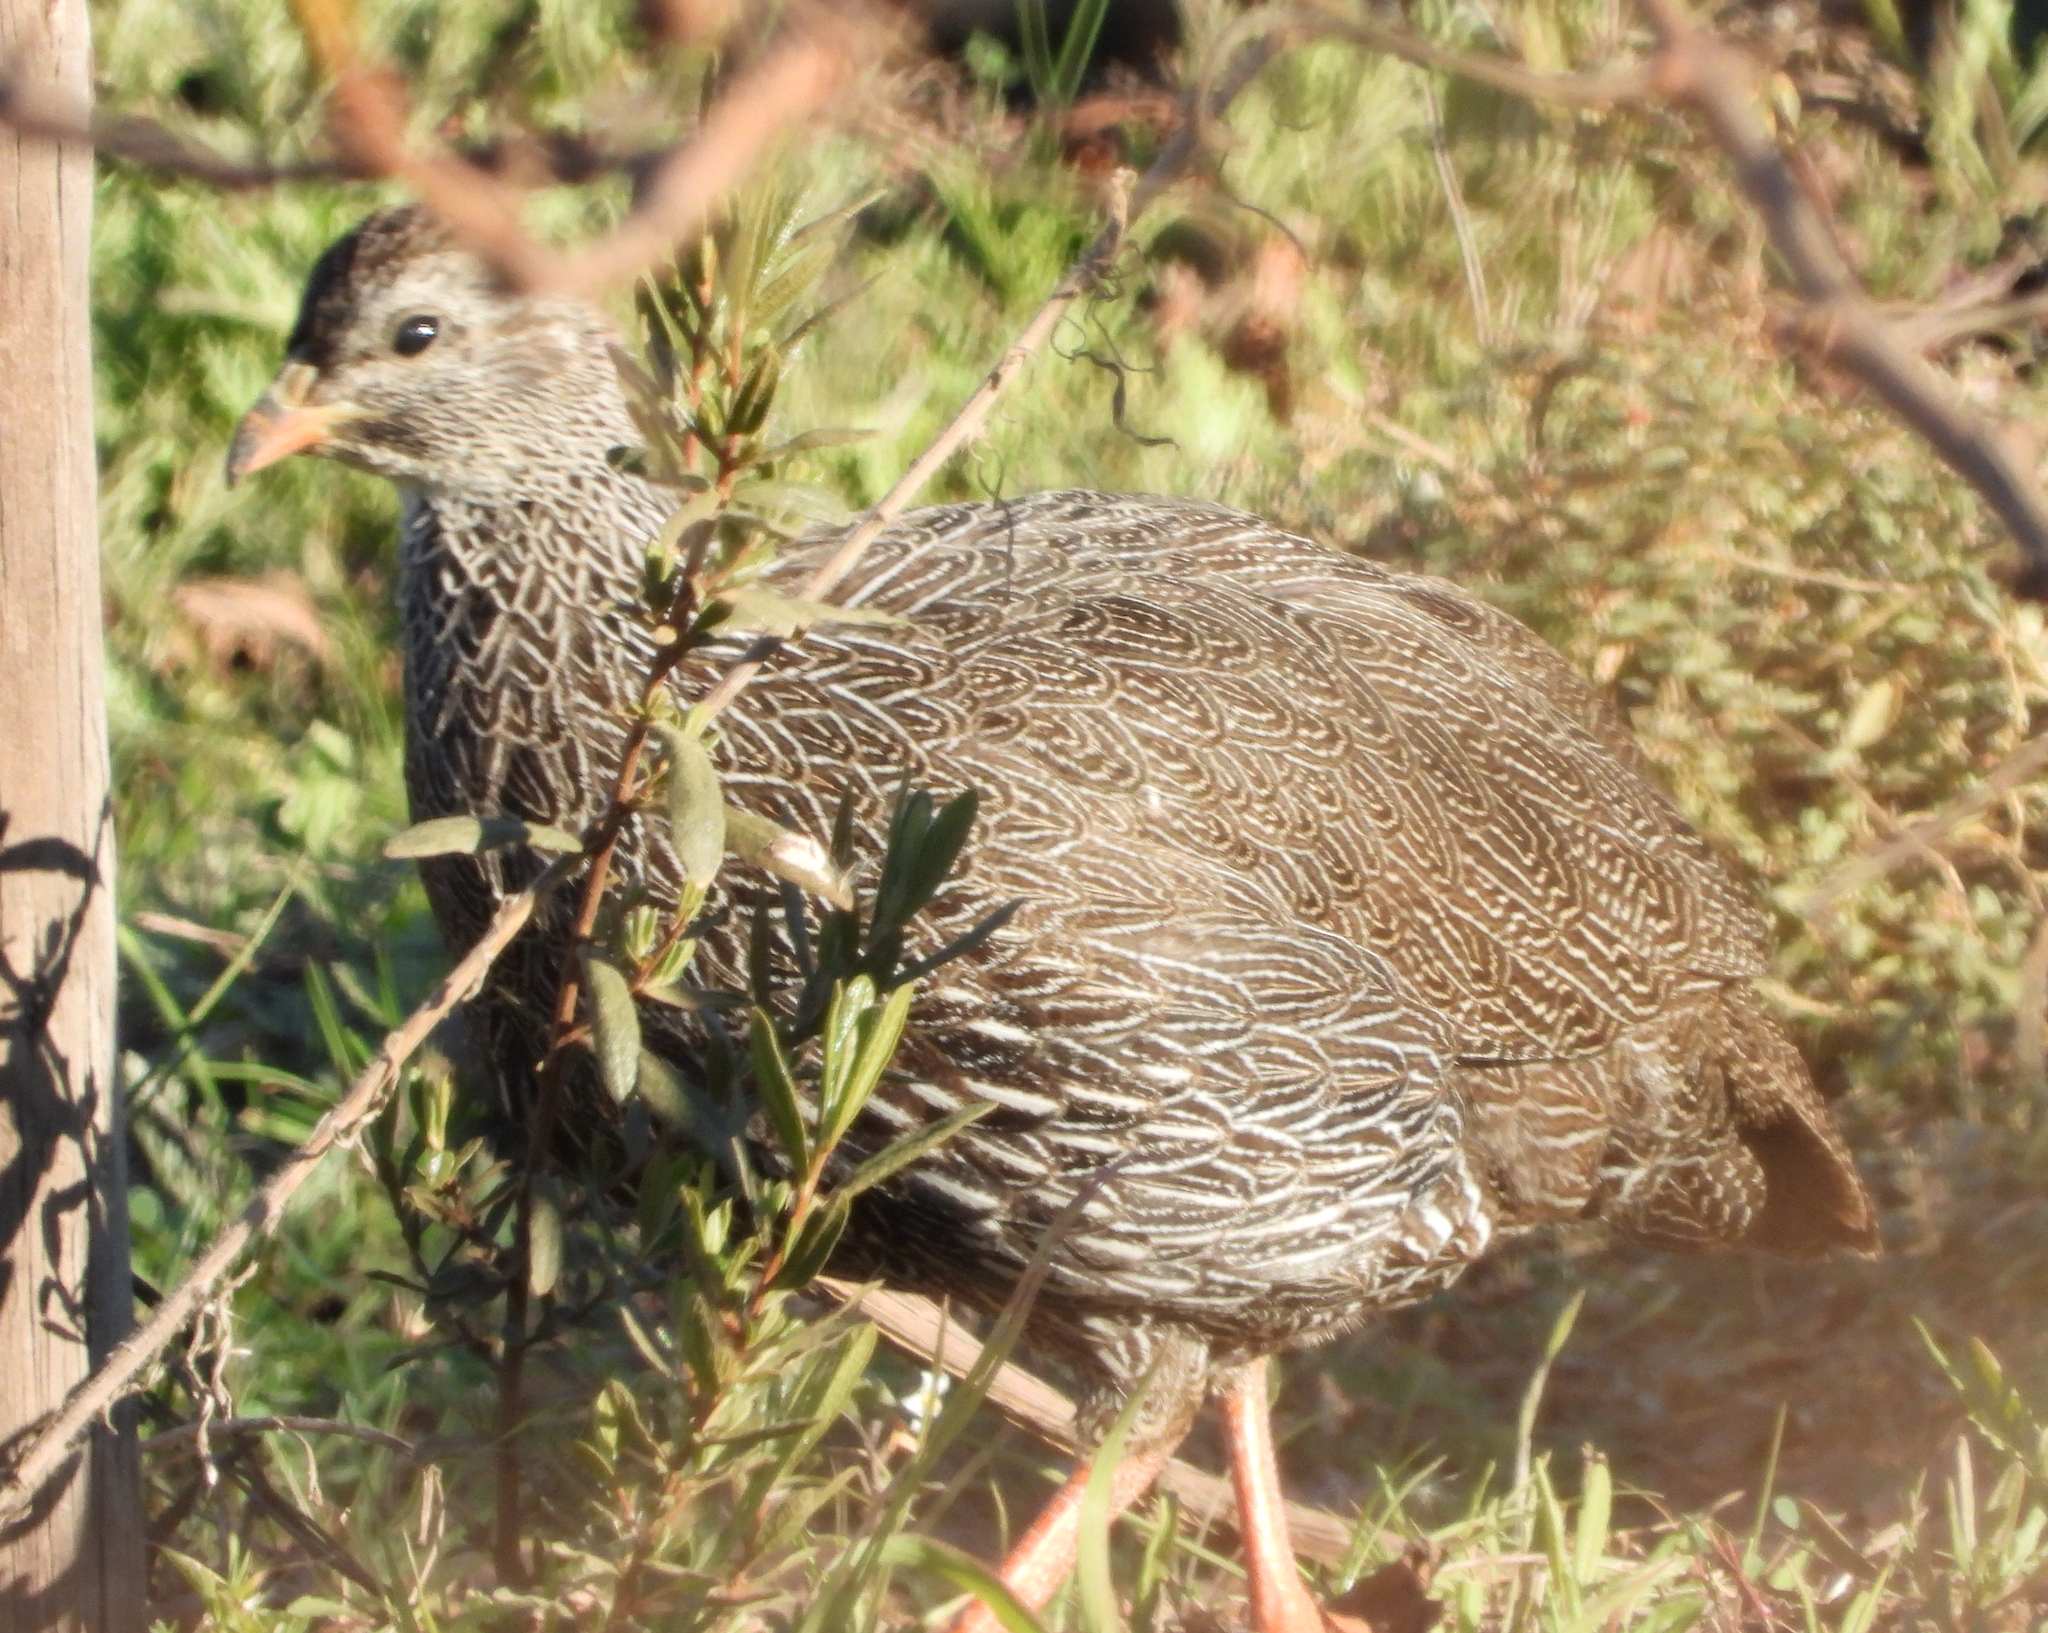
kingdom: Animalia
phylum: Chordata
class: Aves
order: Galliformes
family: Phasianidae
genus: Pternistis
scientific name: Pternistis capensis
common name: Cape spurfowl
